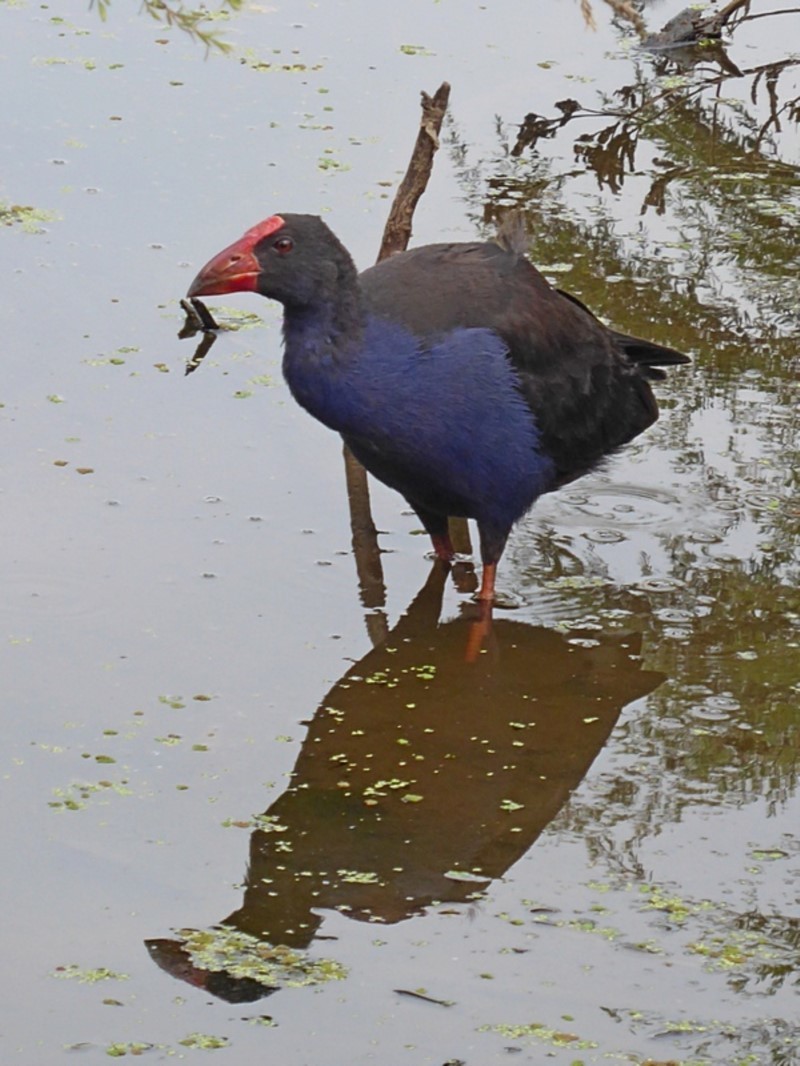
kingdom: Animalia
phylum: Chordata
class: Aves
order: Gruiformes
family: Rallidae
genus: Porphyrio
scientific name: Porphyrio melanotus
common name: Australasian swamphen
